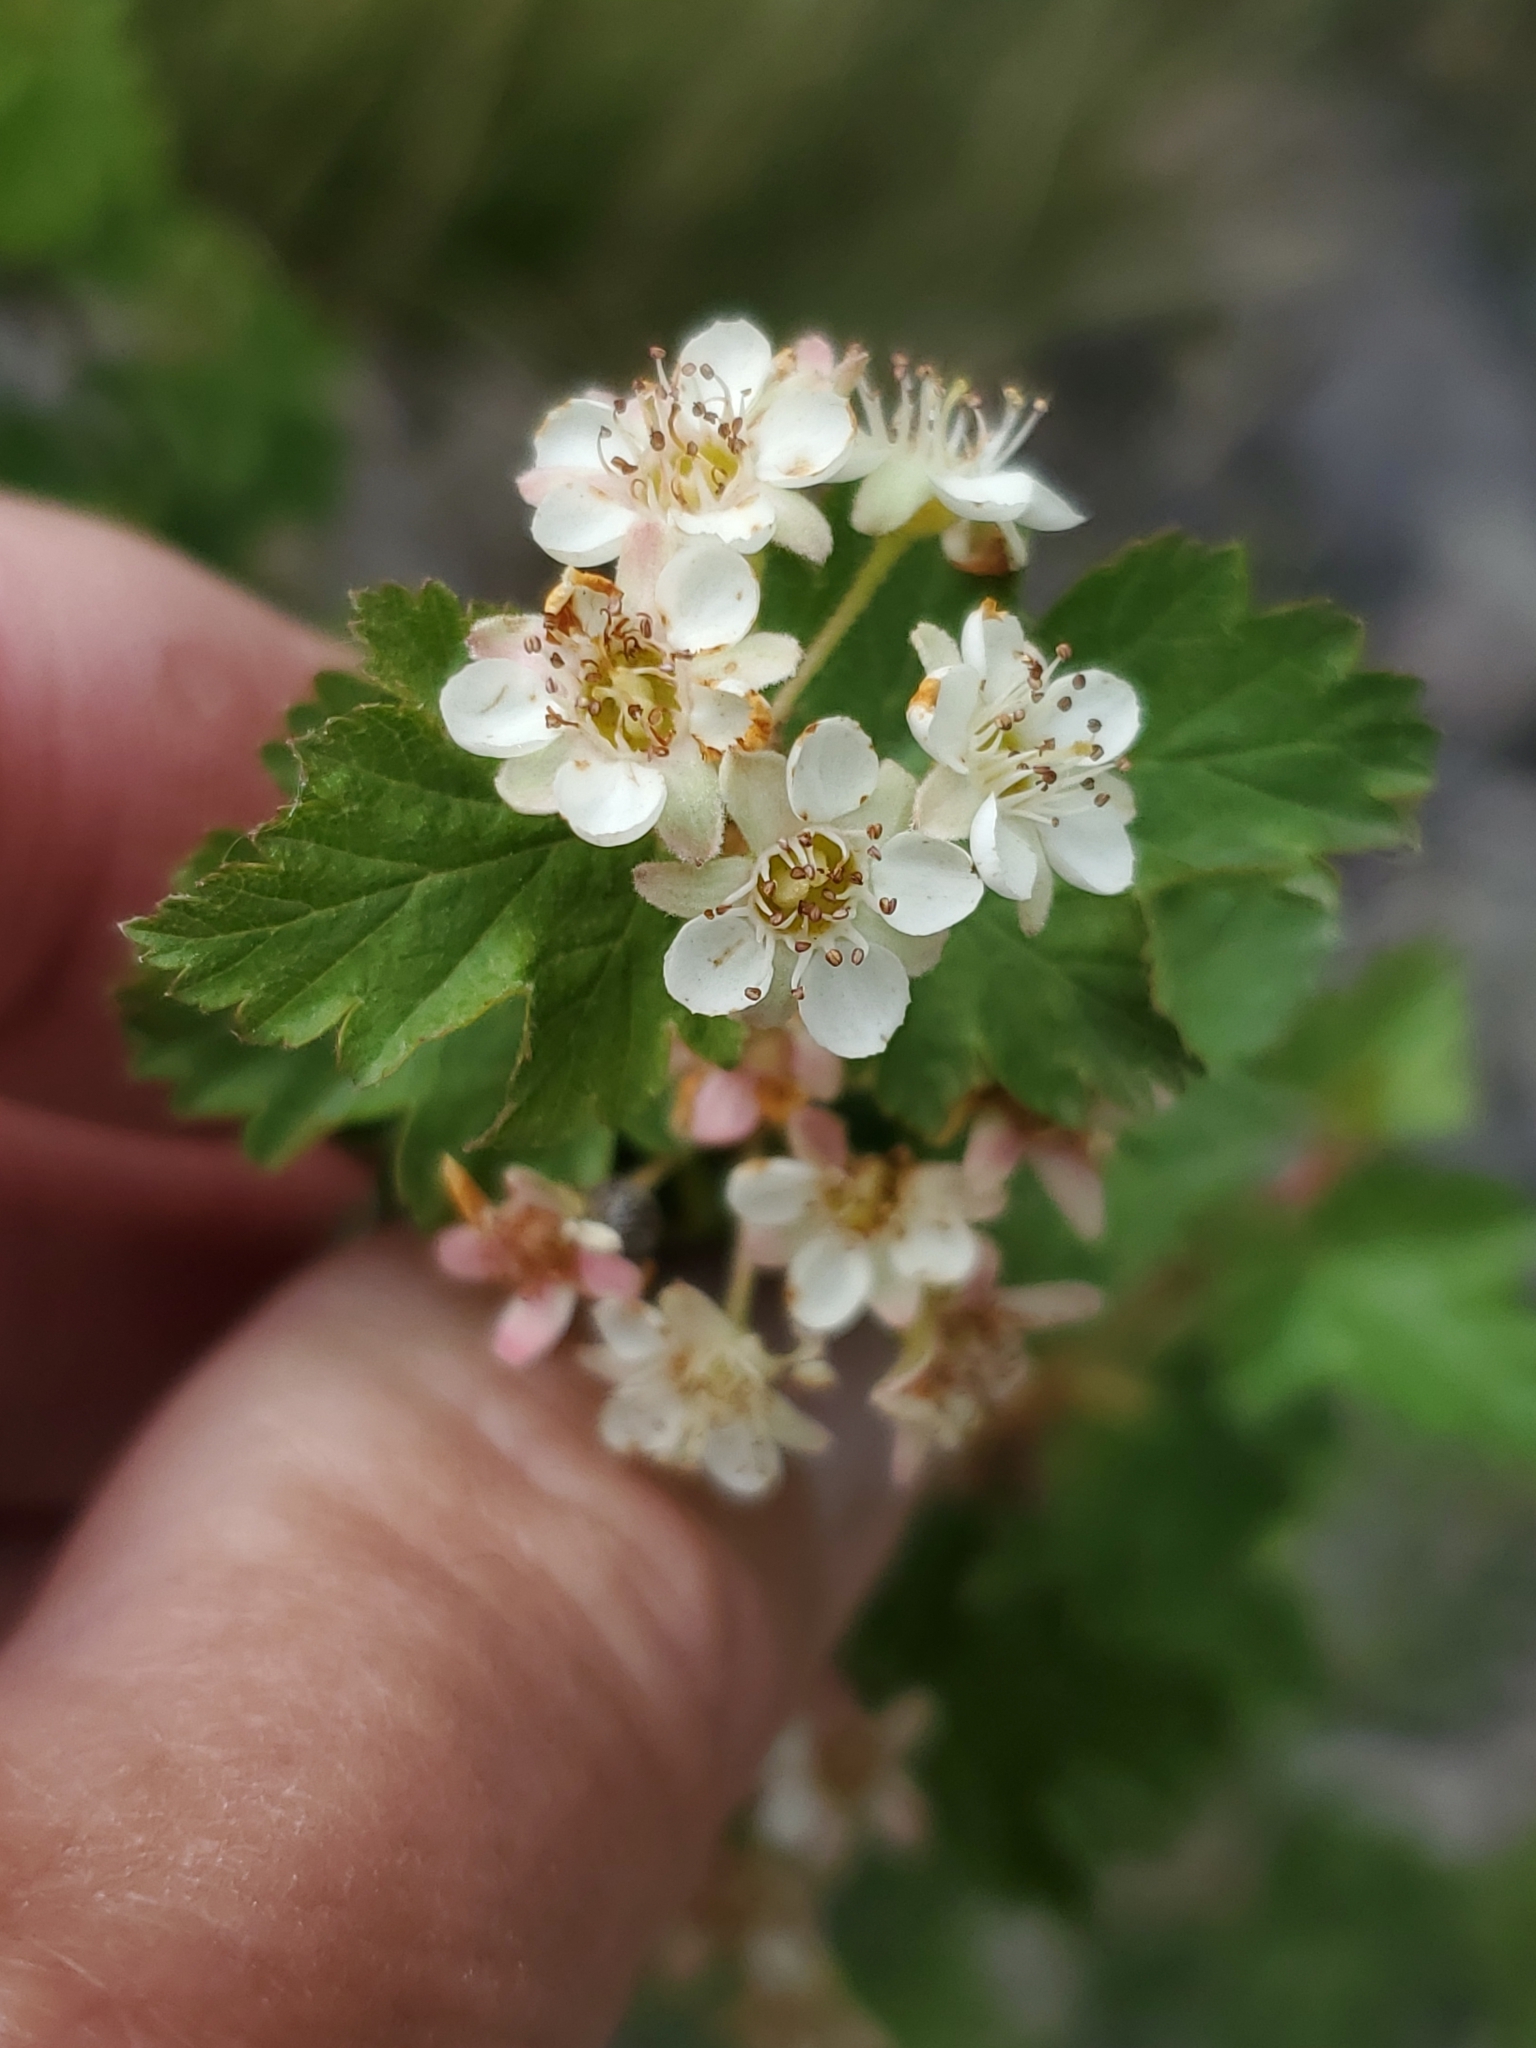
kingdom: Plantae
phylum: Tracheophyta
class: Magnoliopsida
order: Rosales
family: Rosaceae
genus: Physocarpus
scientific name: Physocarpus monogynus
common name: Mountain ninebark
